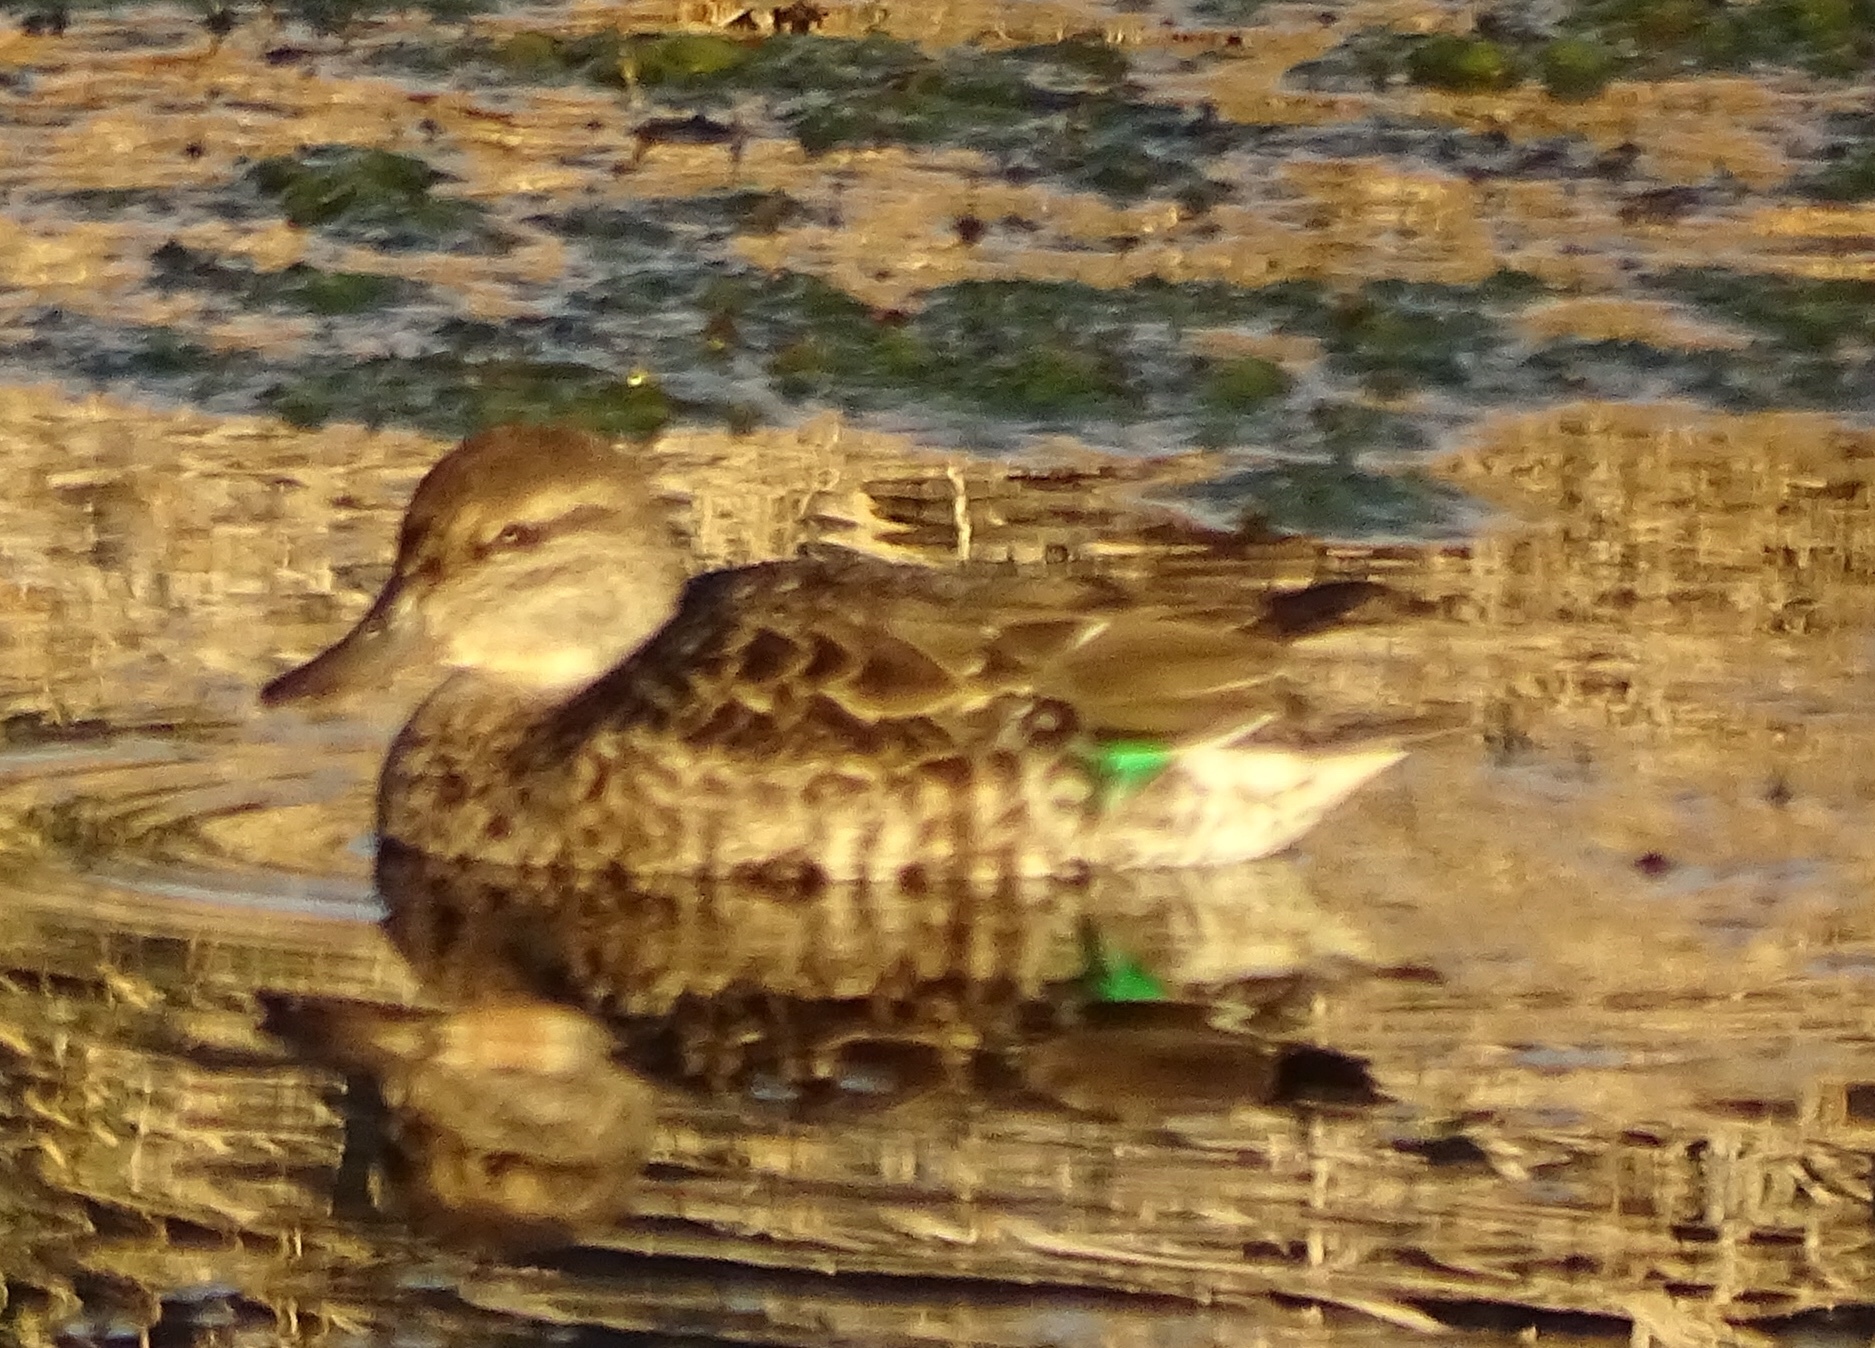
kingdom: Animalia
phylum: Chordata
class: Aves
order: Anseriformes
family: Anatidae
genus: Anas
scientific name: Anas crecca
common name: Eurasian teal
